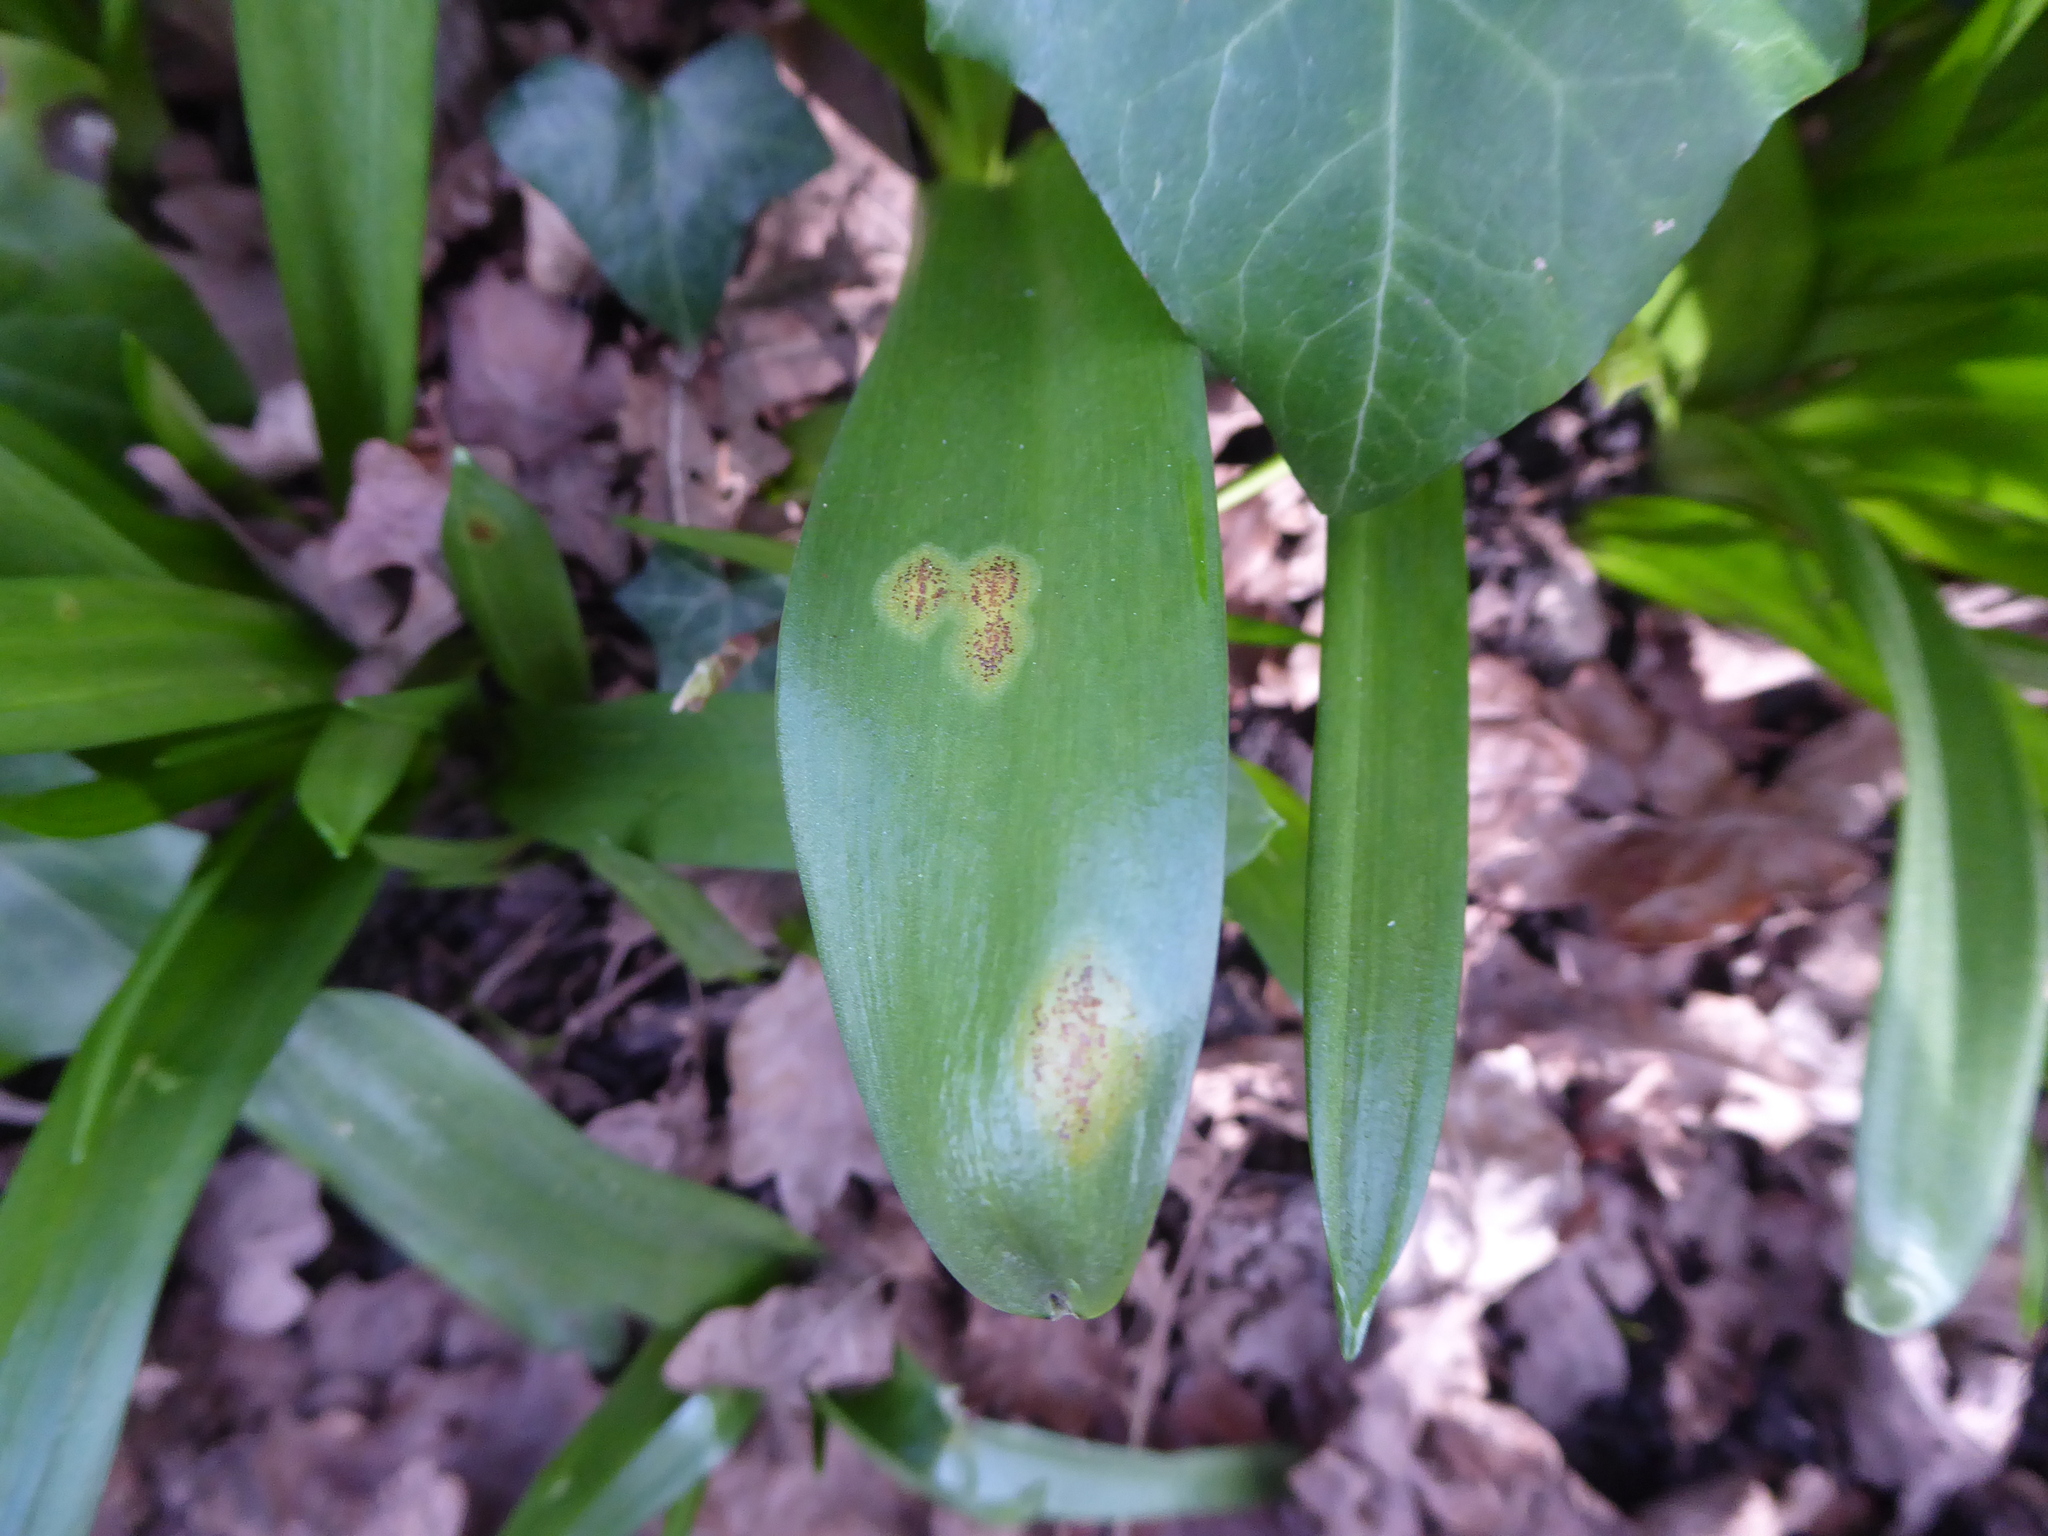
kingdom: Fungi
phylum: Basidiomycota
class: Pucciniomycetes
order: Pucciniales
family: Pucciniaceae
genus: Uromyces
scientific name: Uromyces hyacinthi
